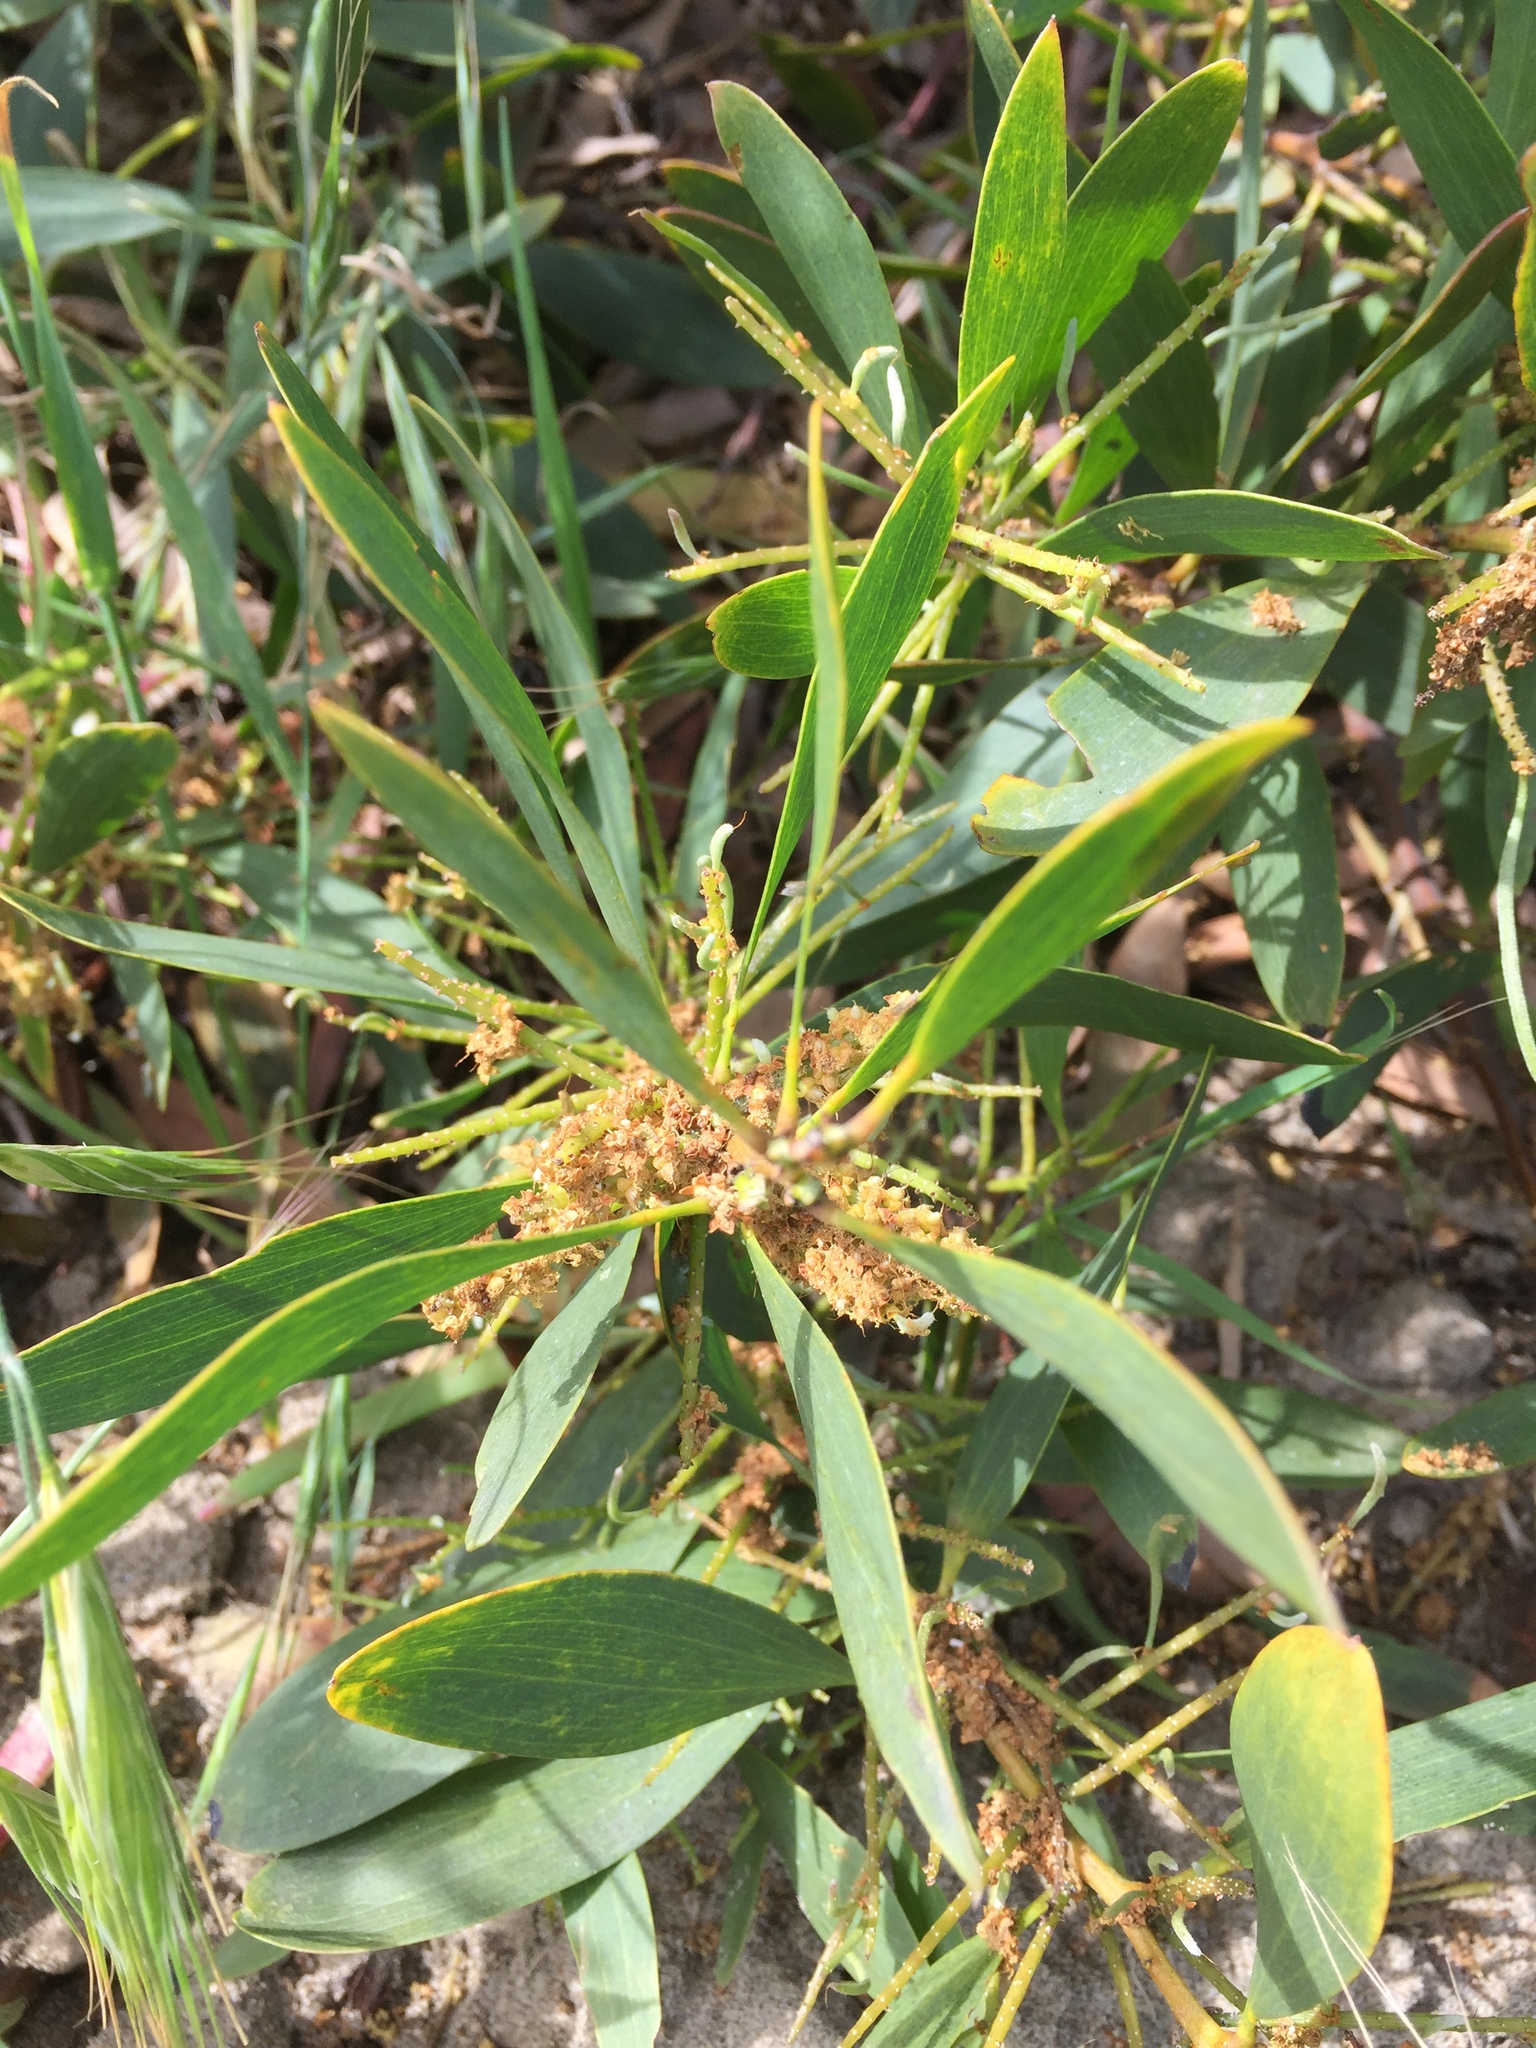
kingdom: Plantae
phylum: Tracheophyta
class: Magnoliopsida
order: Fabales
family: Fabaceae
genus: Acacia
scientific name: Acacia melanoxylon
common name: Blackwood
